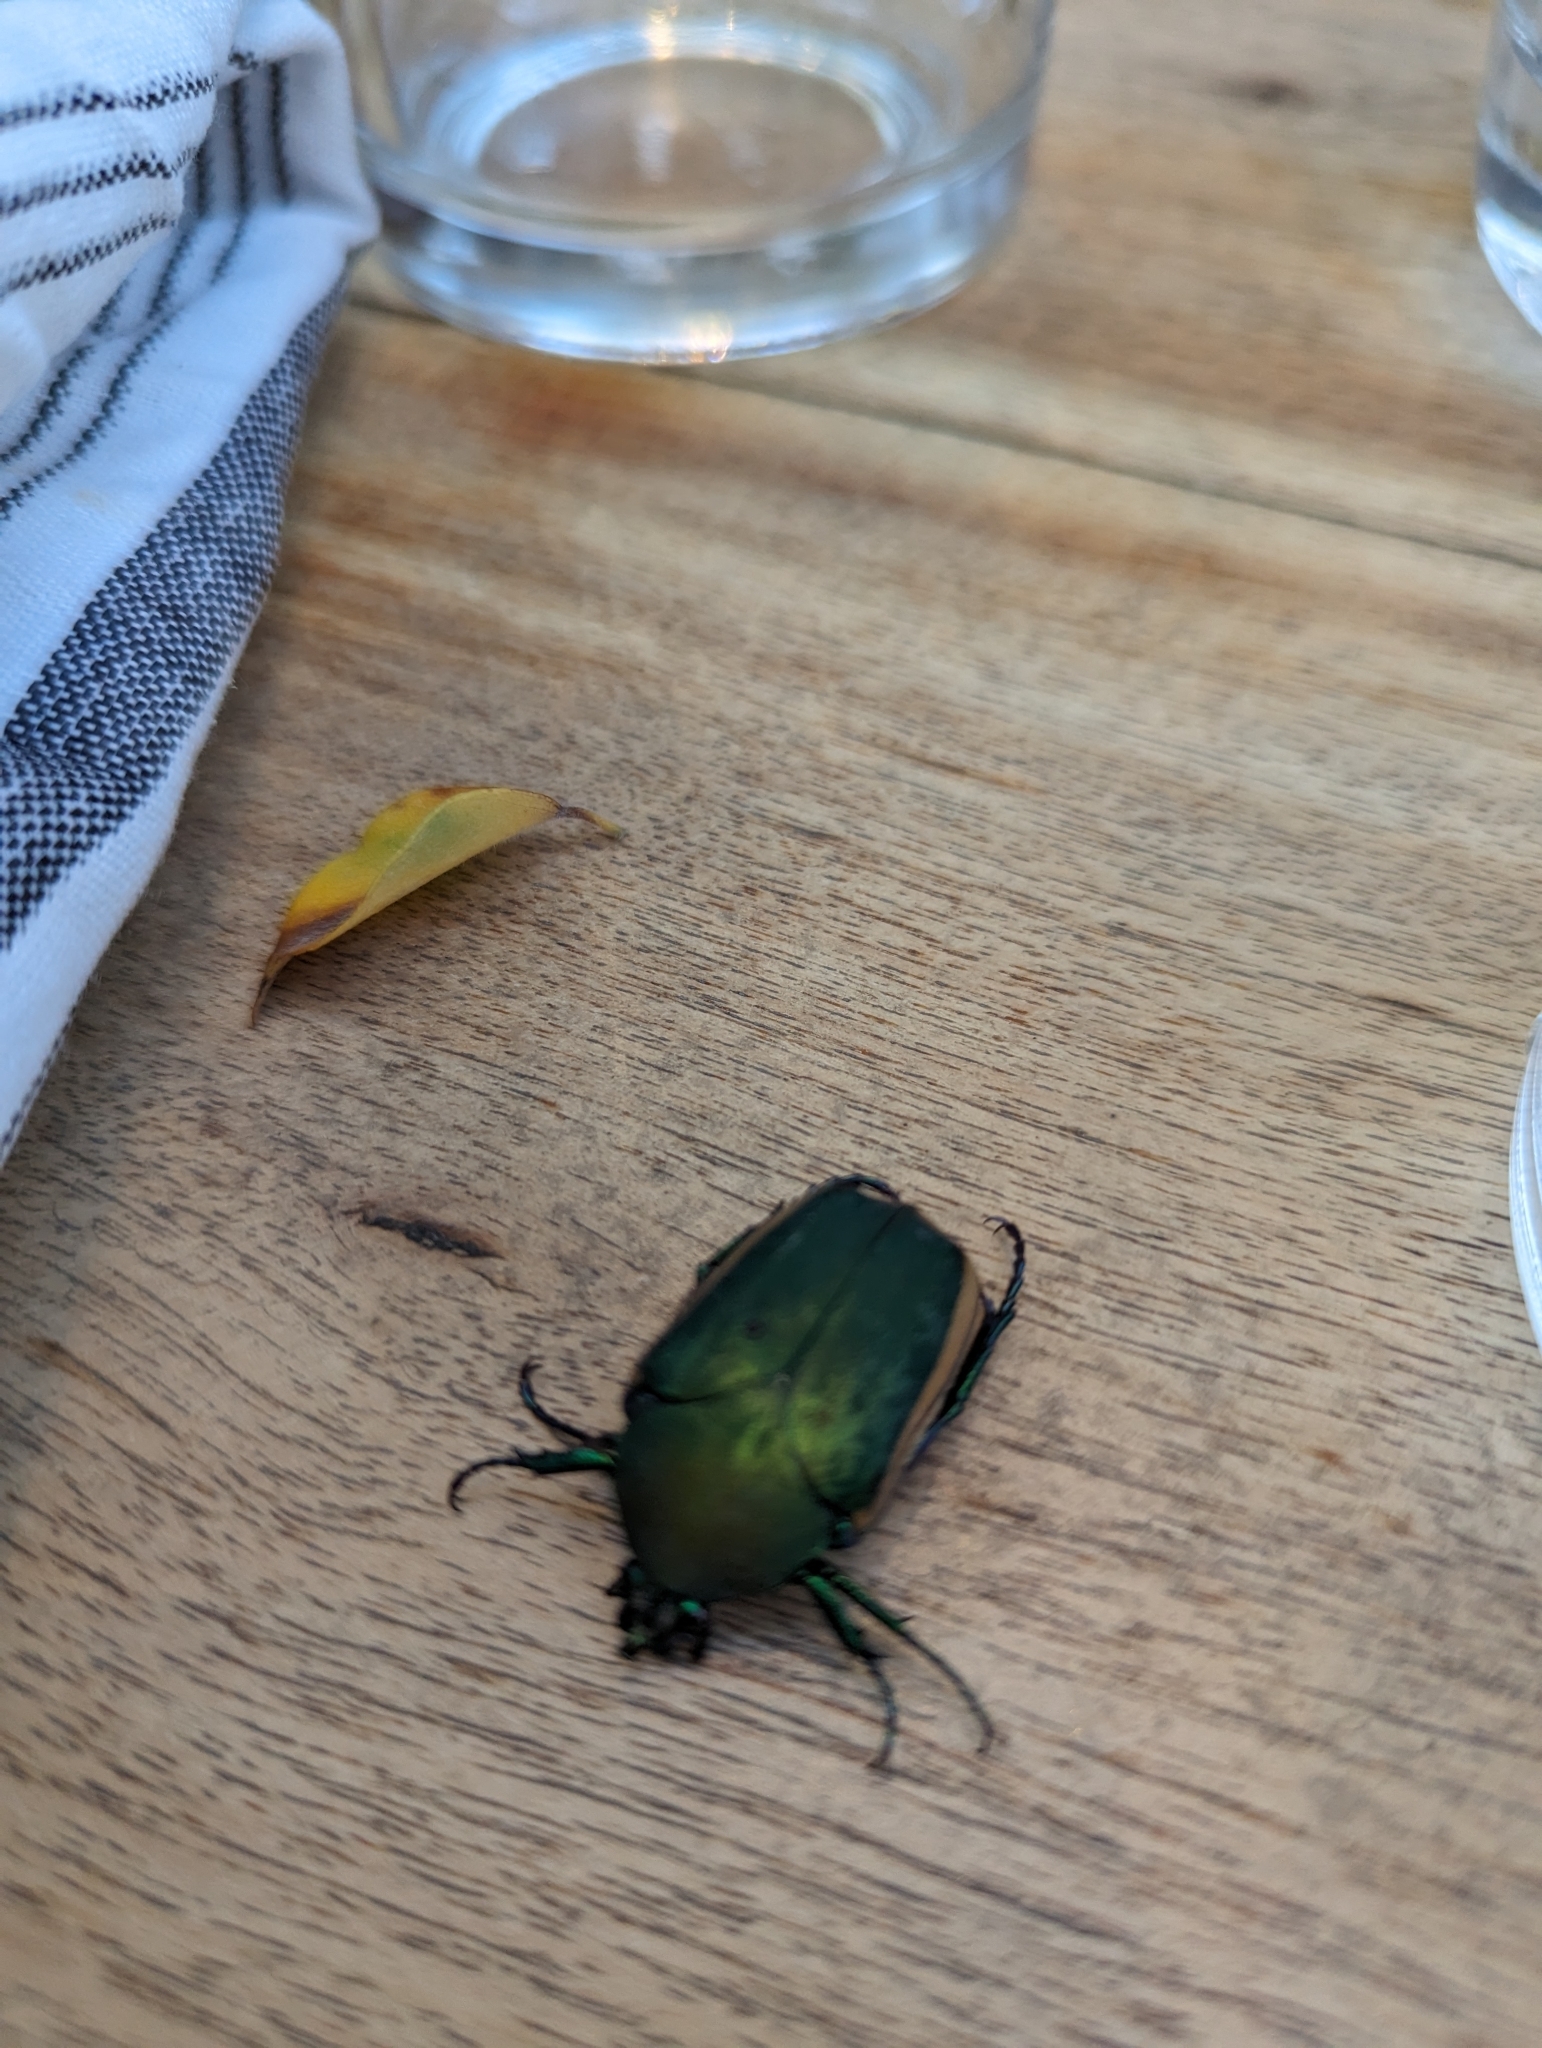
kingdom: Animalia
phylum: Arthropoda
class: Insecta
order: Coleoptera
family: Scarabaeidae
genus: Cotinis
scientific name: Cotinis mutabilis
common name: Figeater beetle
